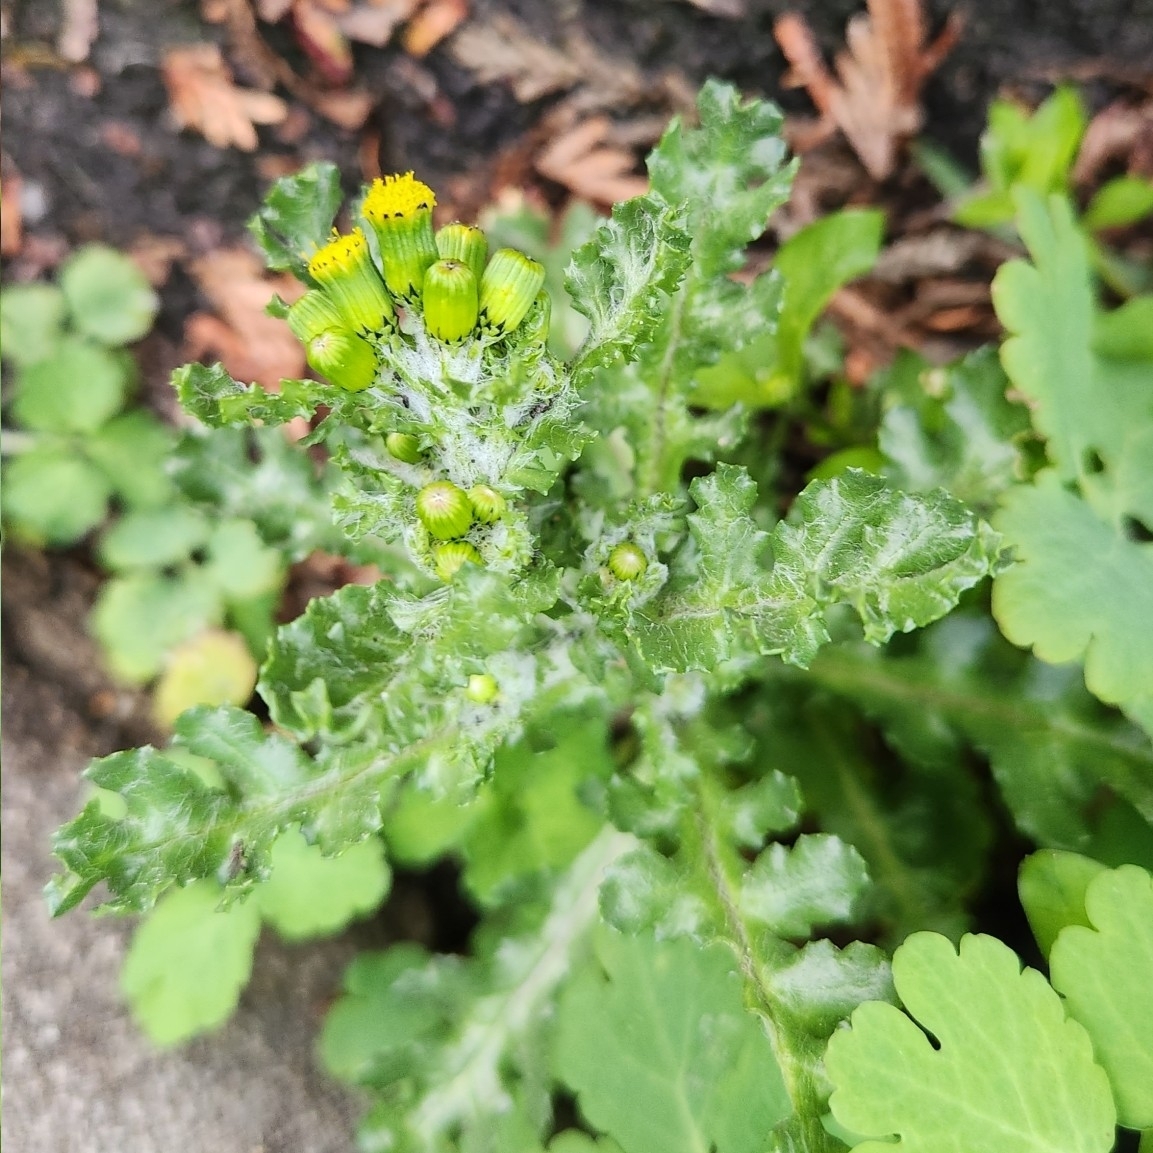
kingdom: Plantae
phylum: Tracheophyta
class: Magnoliopsida
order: Asterales
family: Asteraceae
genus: Senecio
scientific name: Senecio vulgaris
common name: Old-man-in-the-spring
